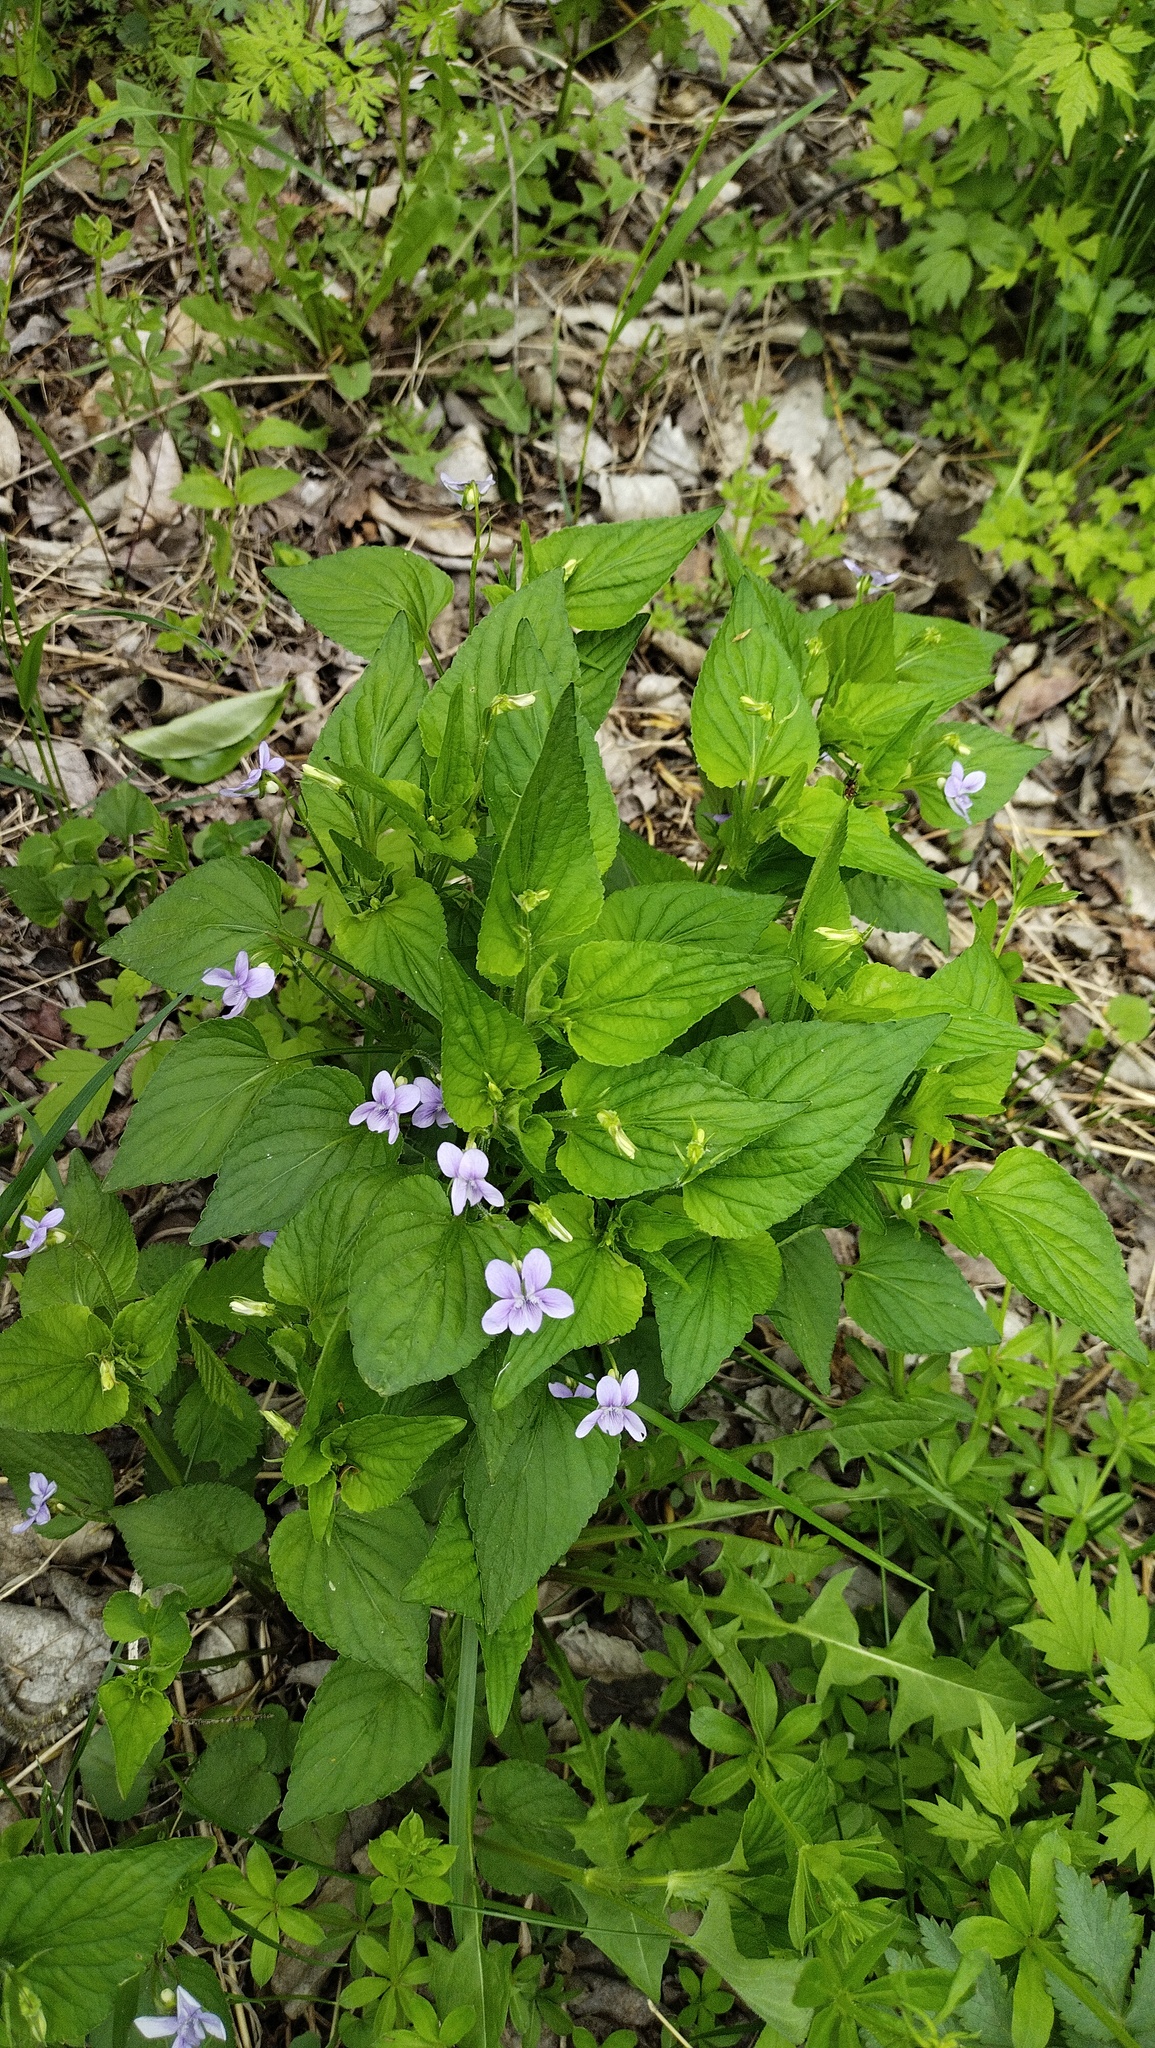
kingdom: Plantae
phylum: Tracheophyta
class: Magnoliopsida
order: Malpighiales
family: Violaceae
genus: Viola
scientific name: Viola acuminata
